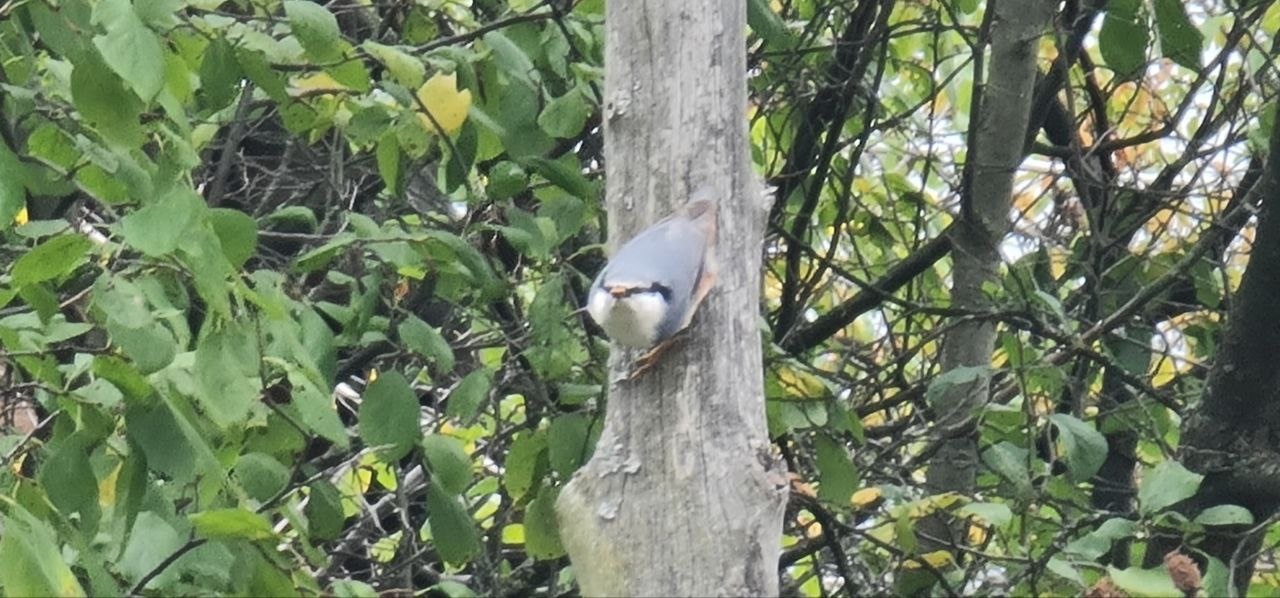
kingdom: Animalia
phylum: Chordata
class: Aves
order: Passeriformes
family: Sittidae
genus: Sitta
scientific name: Sitta europaea
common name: Eurasian nuthatch
